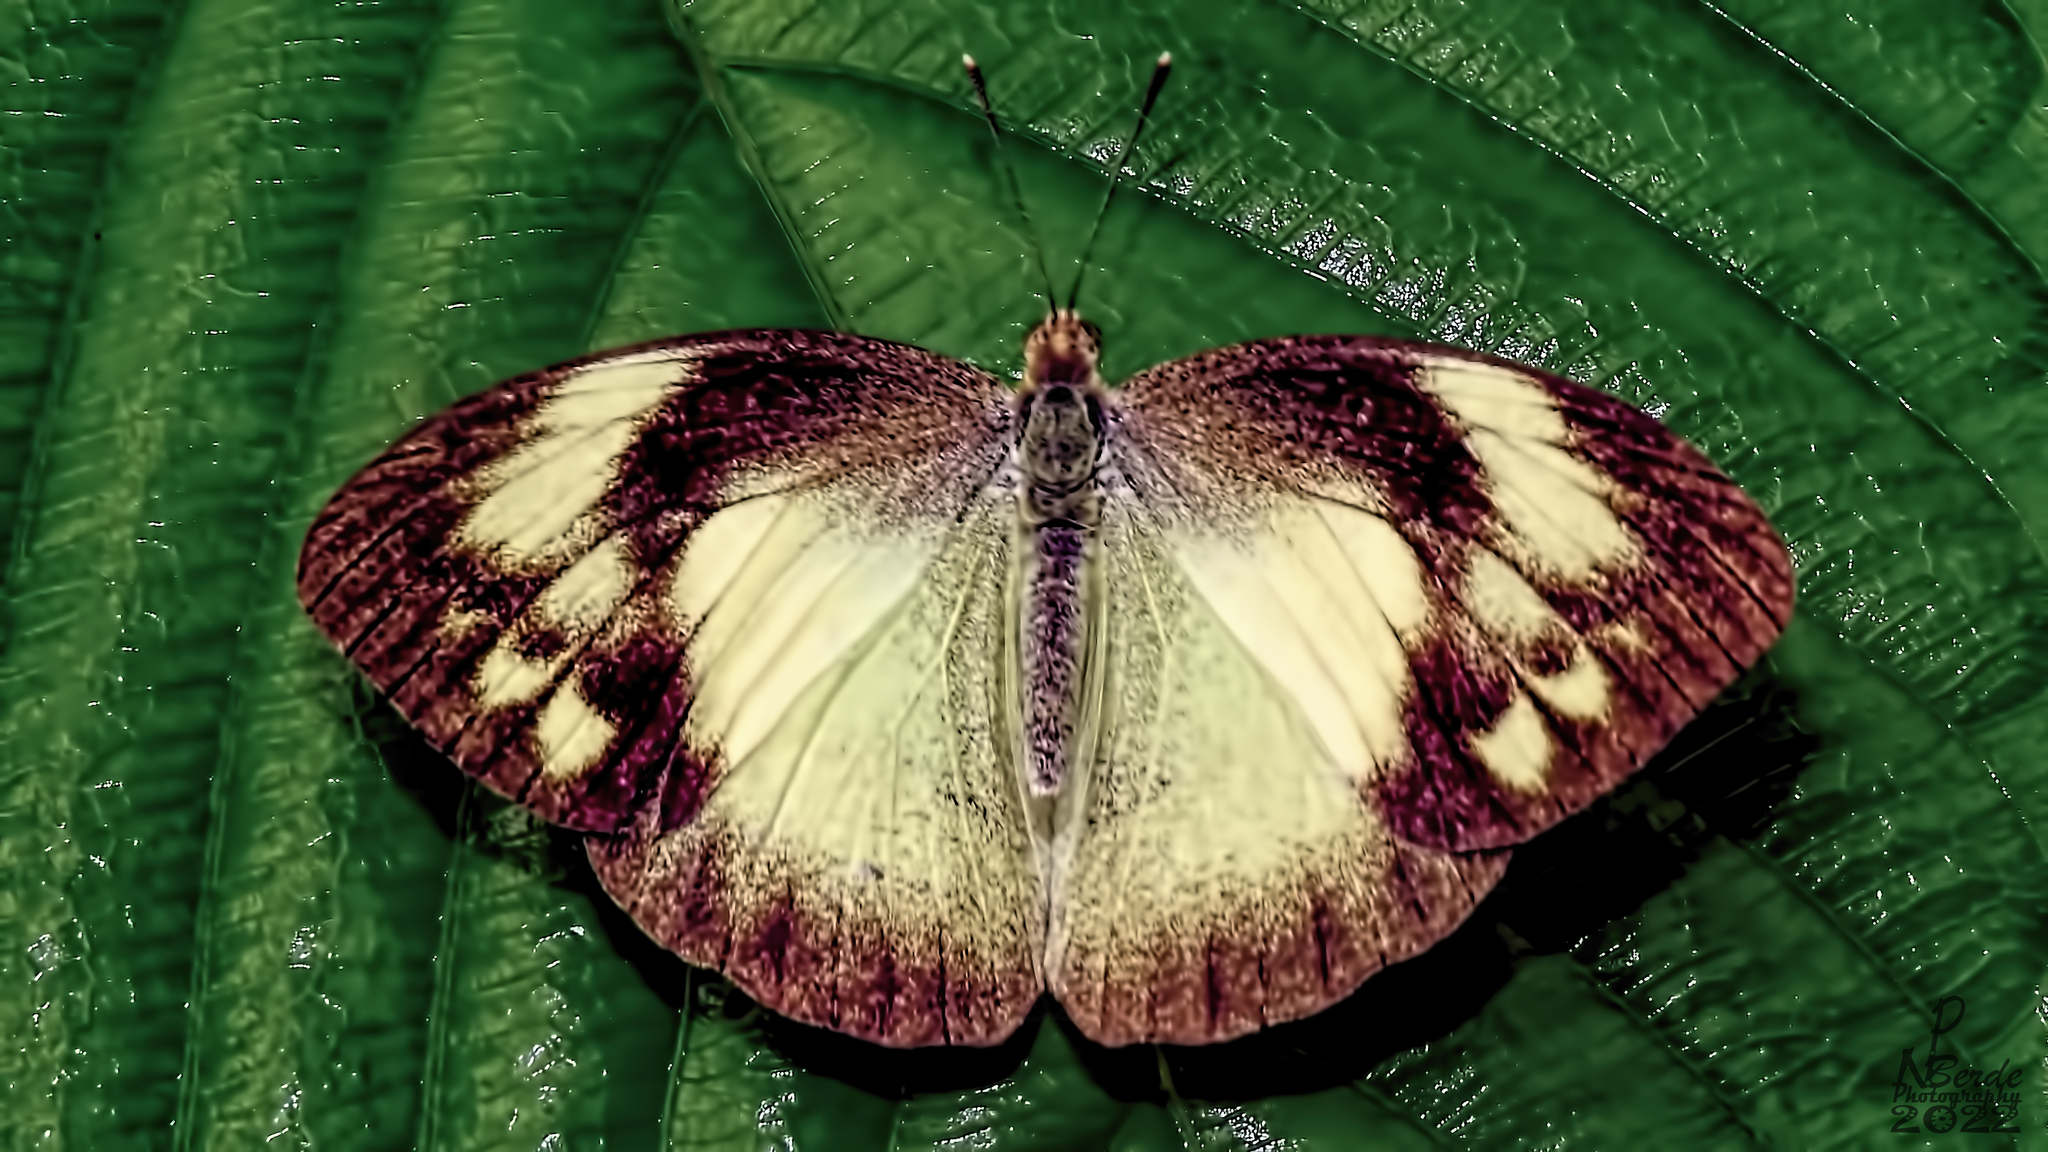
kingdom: Animalia
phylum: Arthropoda
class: Insecta
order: Lepidoptera
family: Pieridae
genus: Ixias
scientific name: Ixias pyrene
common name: Yellow orange tip
